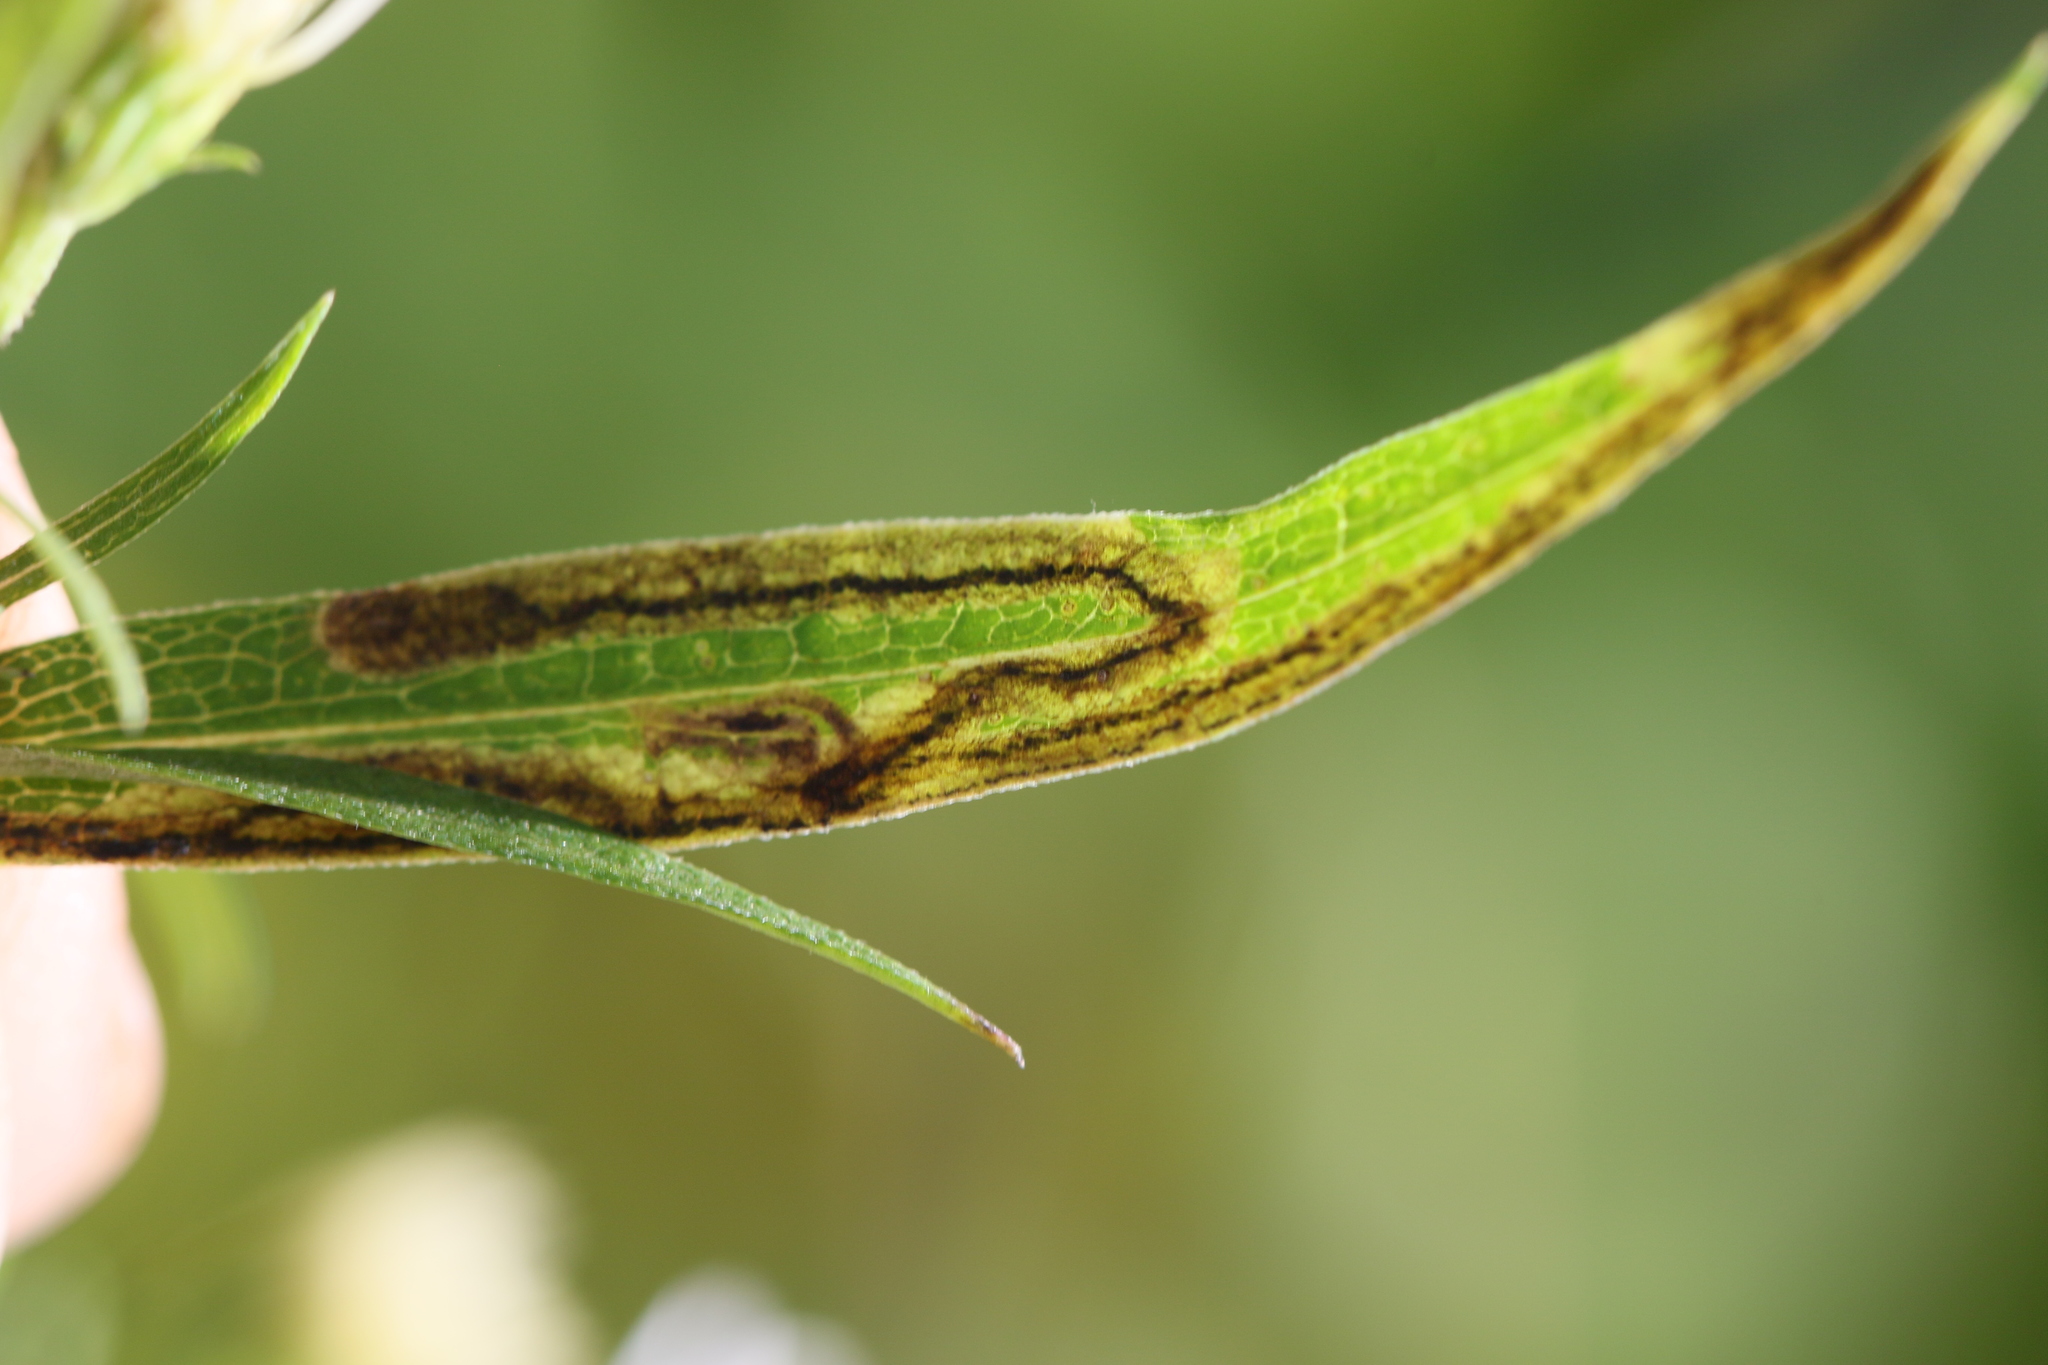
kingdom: Animalia
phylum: Arthropoda
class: Insecta
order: Diptera
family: Agromyzidae
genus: Liriomyza
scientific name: Liriomyza eupatorii
